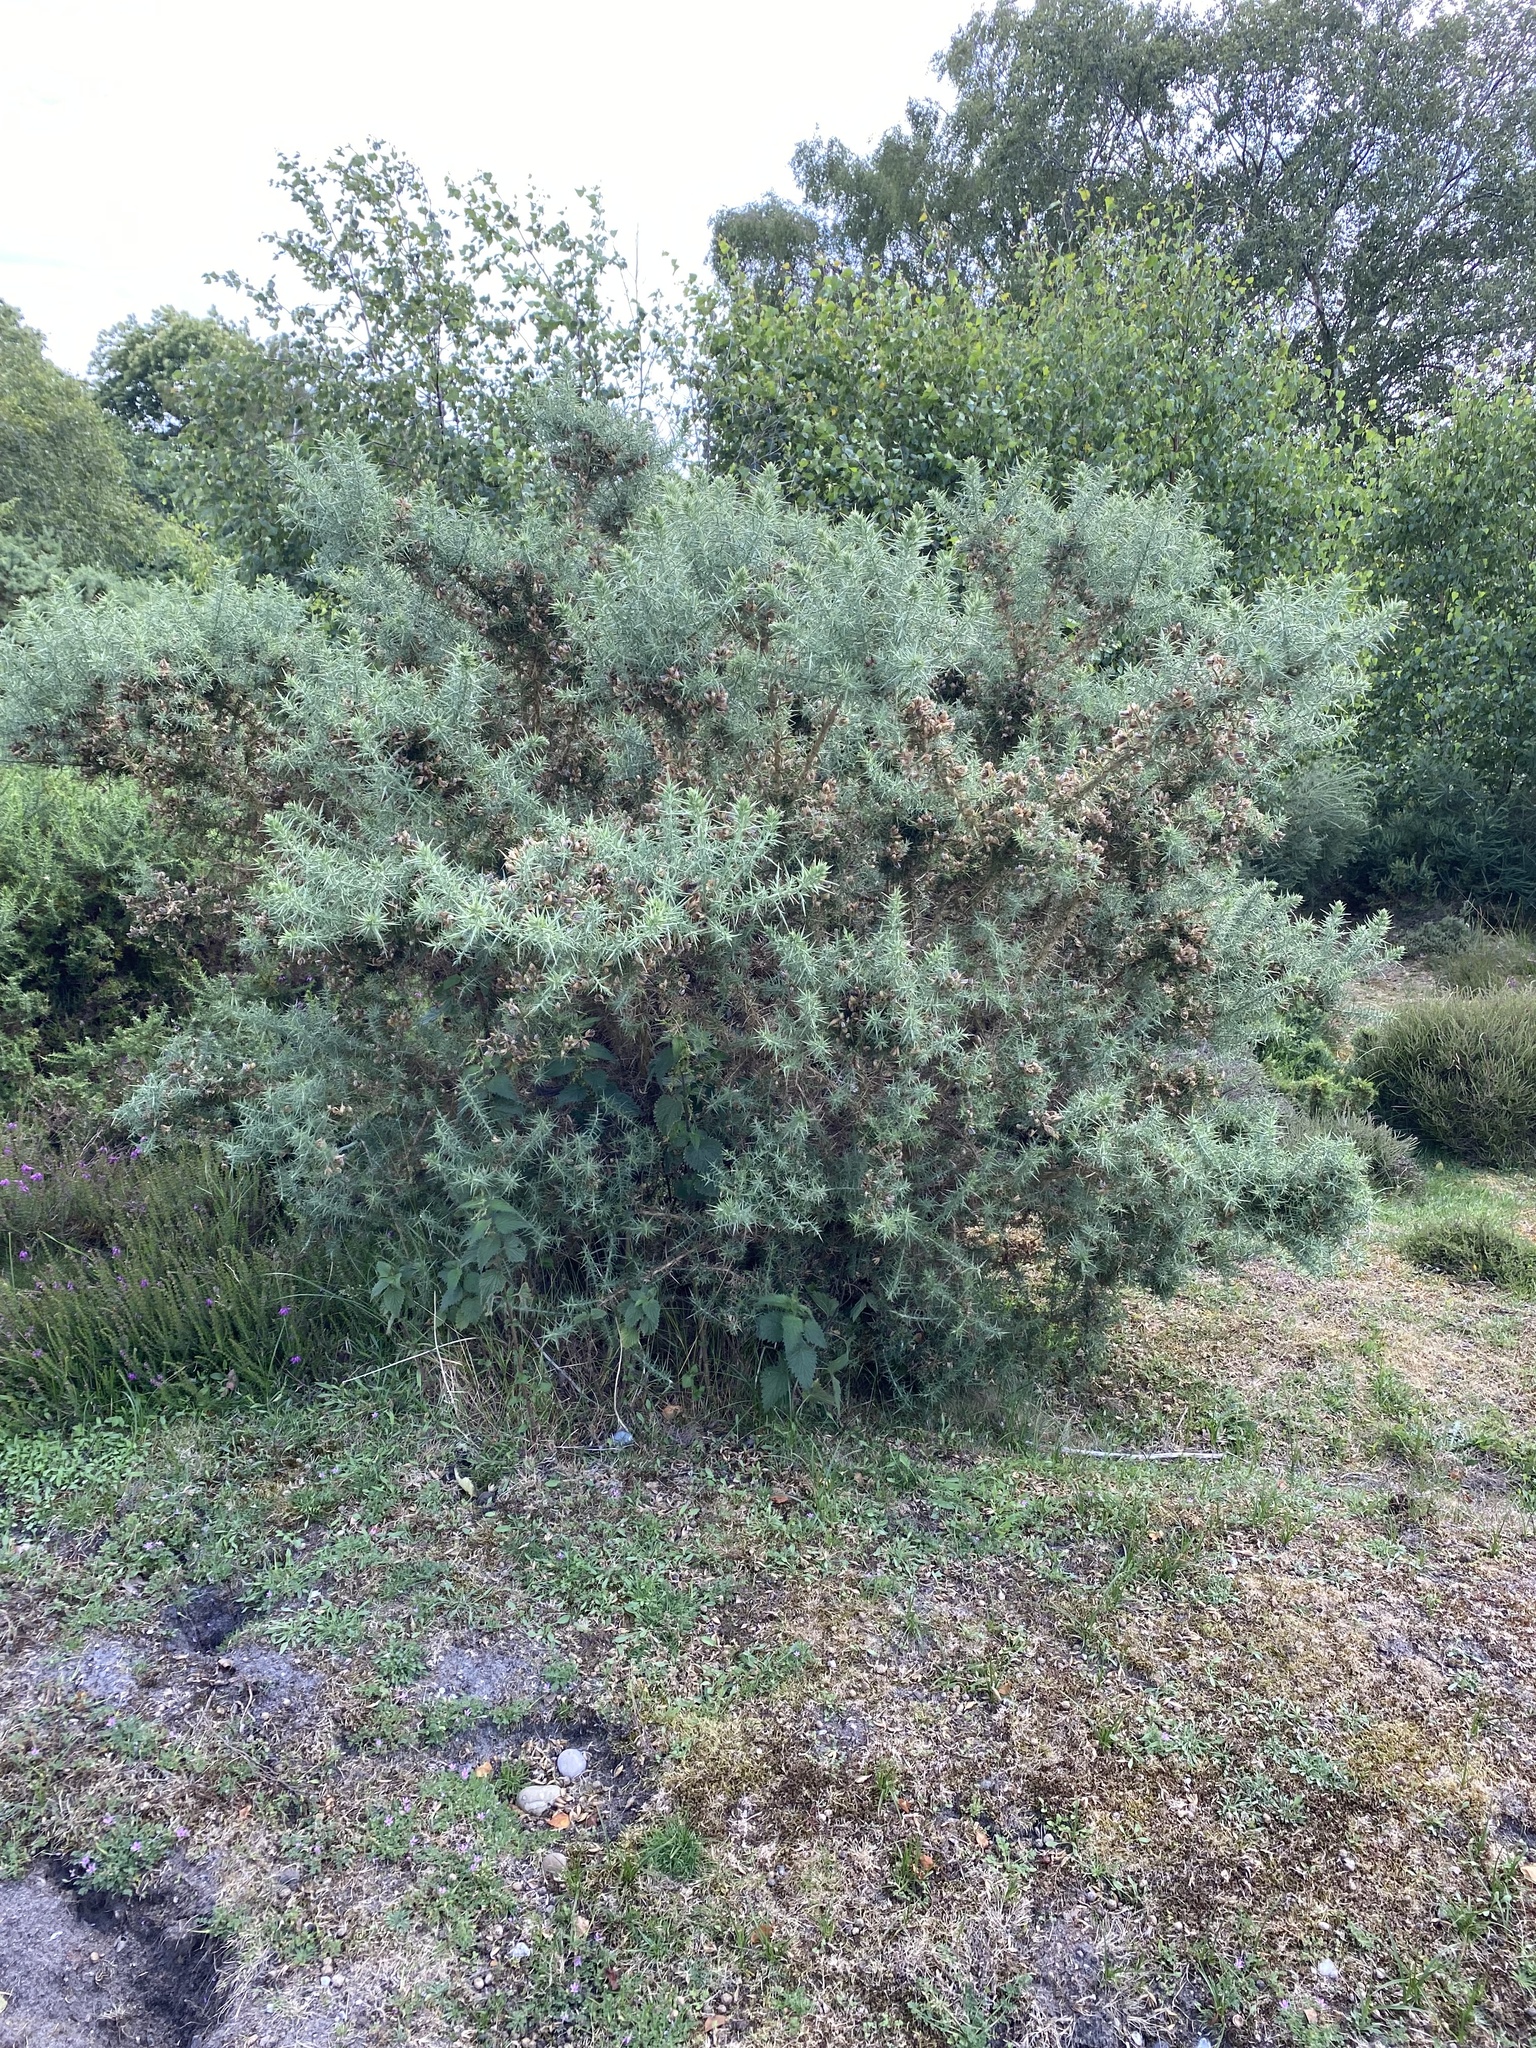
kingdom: Plantae
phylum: Tracheophyta
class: Magnoliopsida
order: Fabales
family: Fabaceae
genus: Ulex
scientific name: Ulex europaeus
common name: Common gorse
